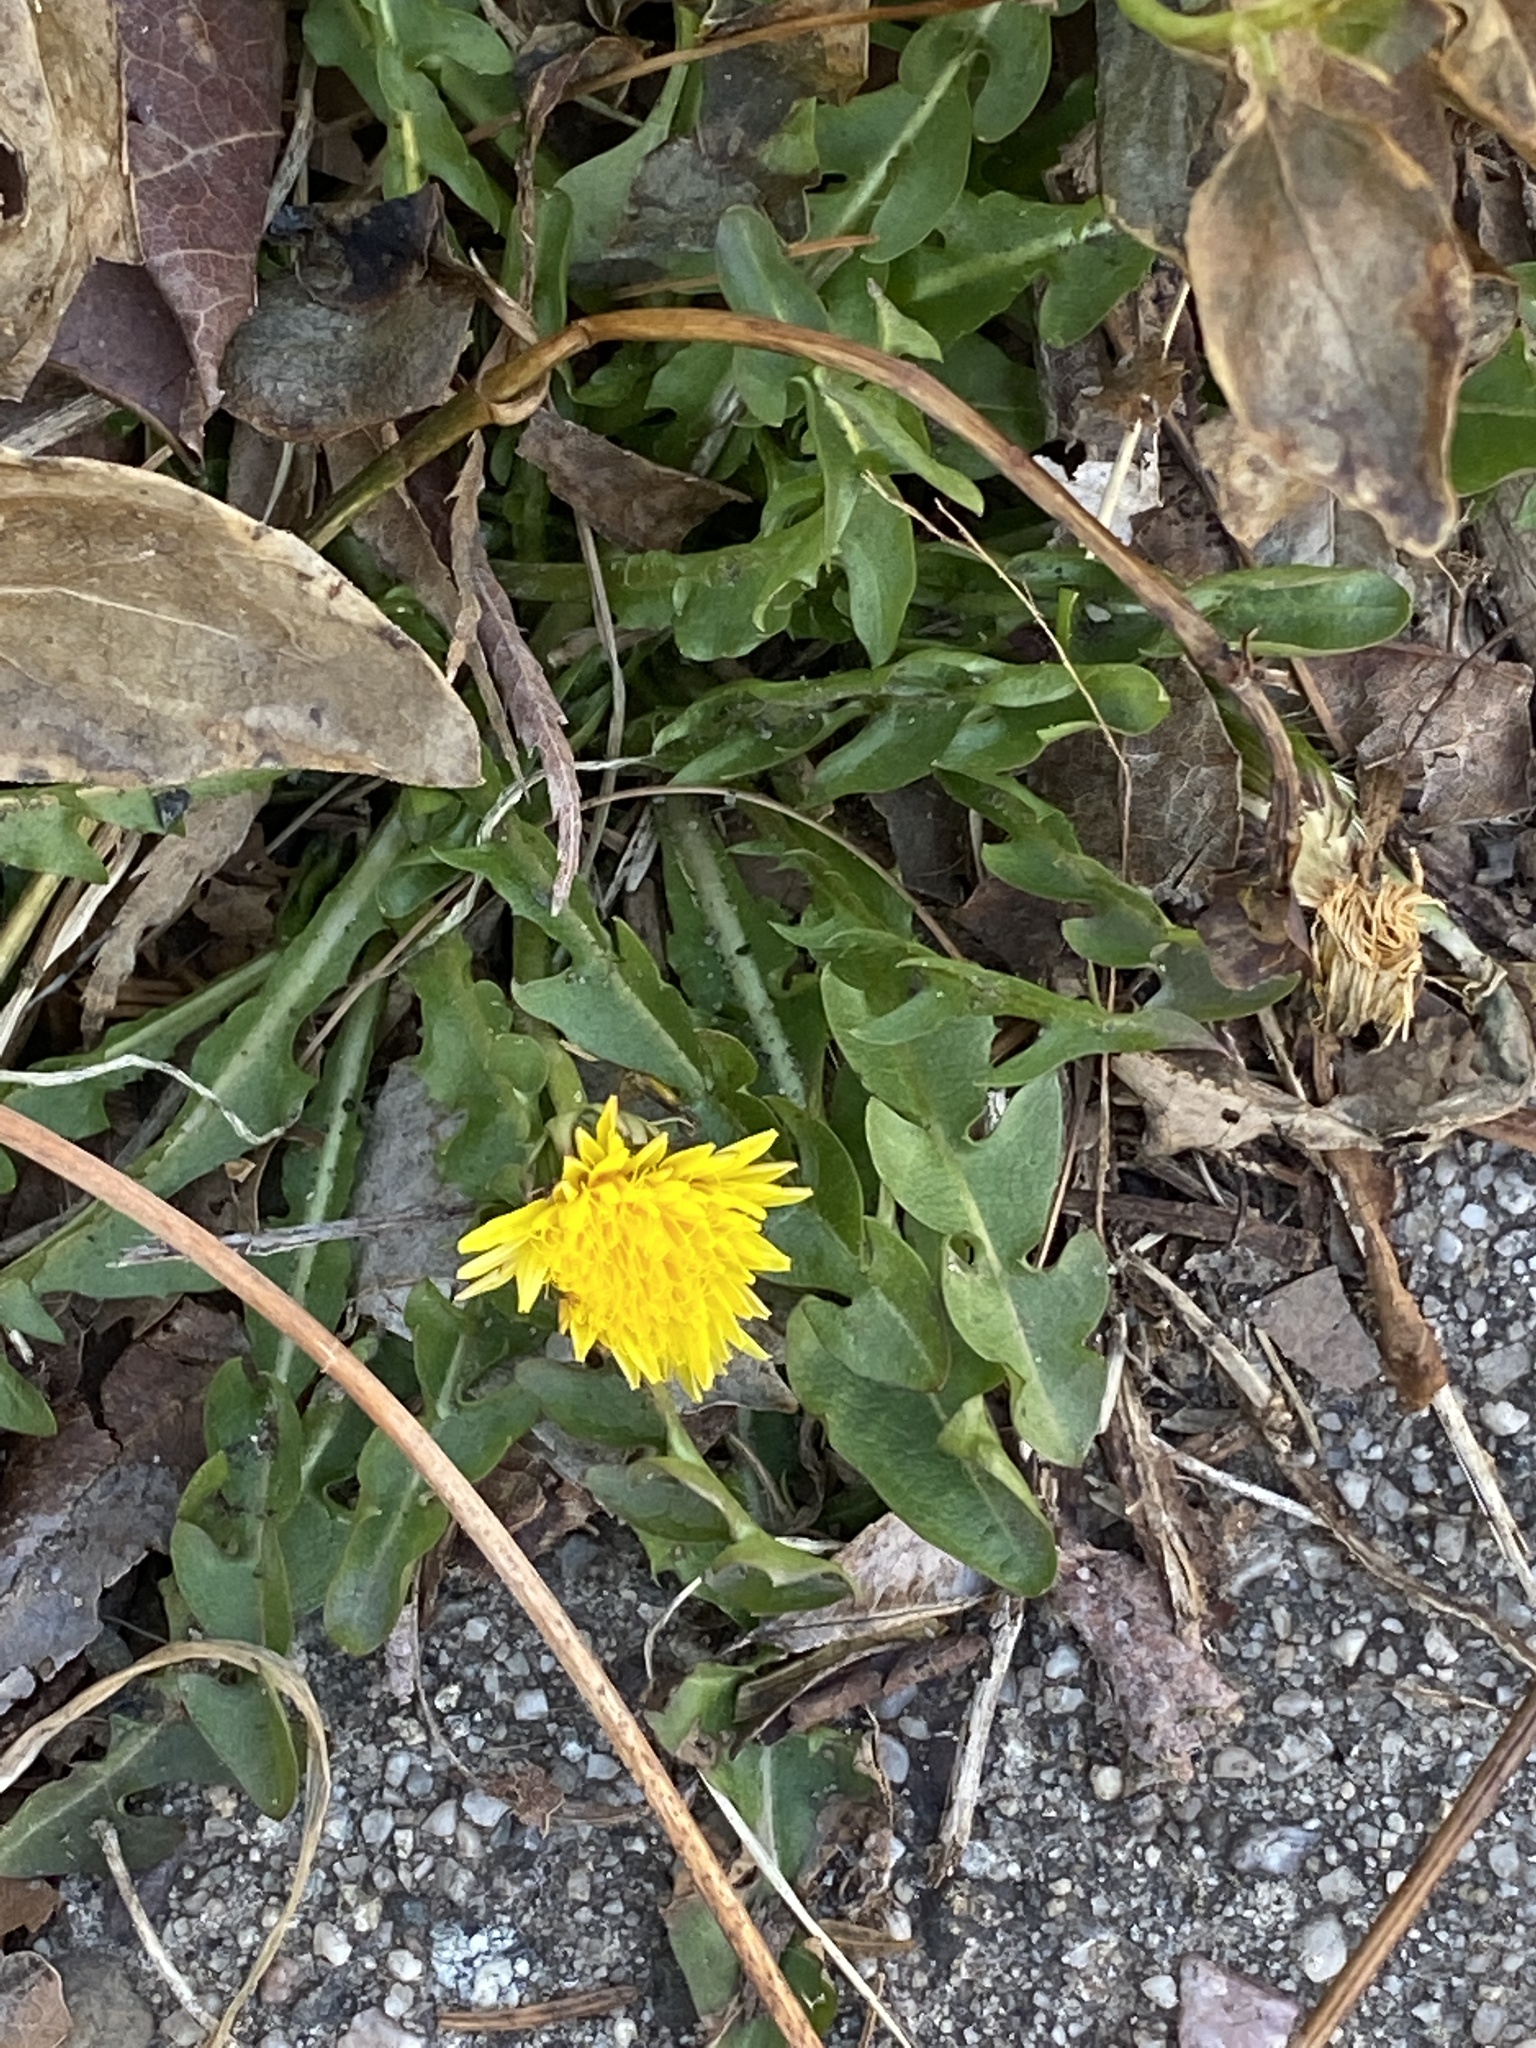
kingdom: Plantae
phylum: Tracheophyta
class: Magnoliopsida
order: Asterales
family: Asteraceae
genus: Taraxacum
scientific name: Taraxacum
